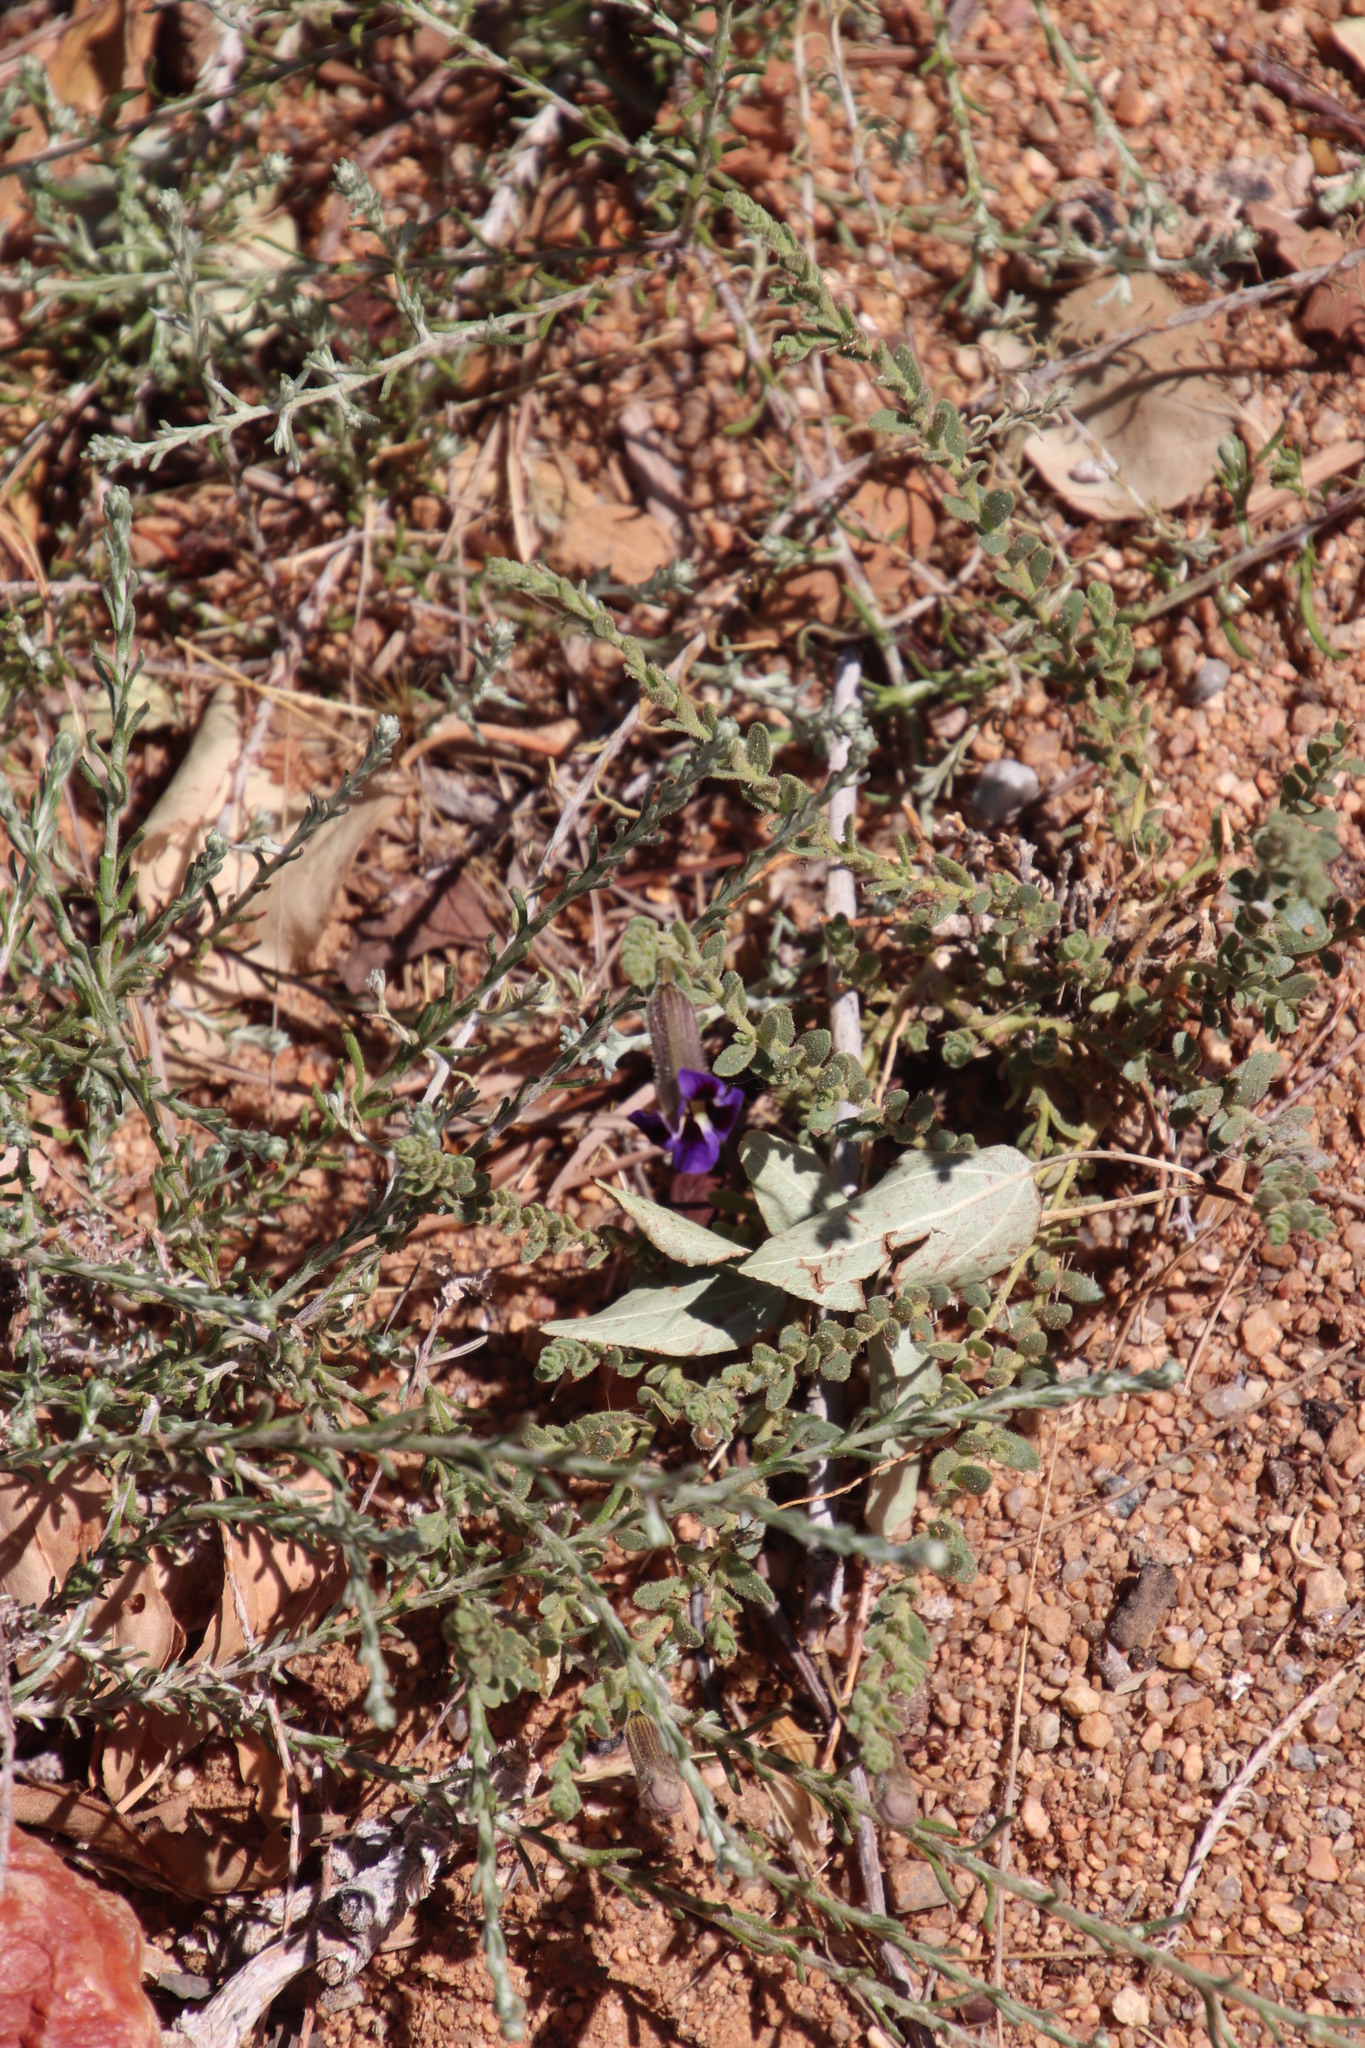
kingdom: Plantae
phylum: Tracheophyta
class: Magnoliopsida
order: Lamiales
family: Scrophulariaceae
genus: Peliostomum
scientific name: Peliostomum virgatum
